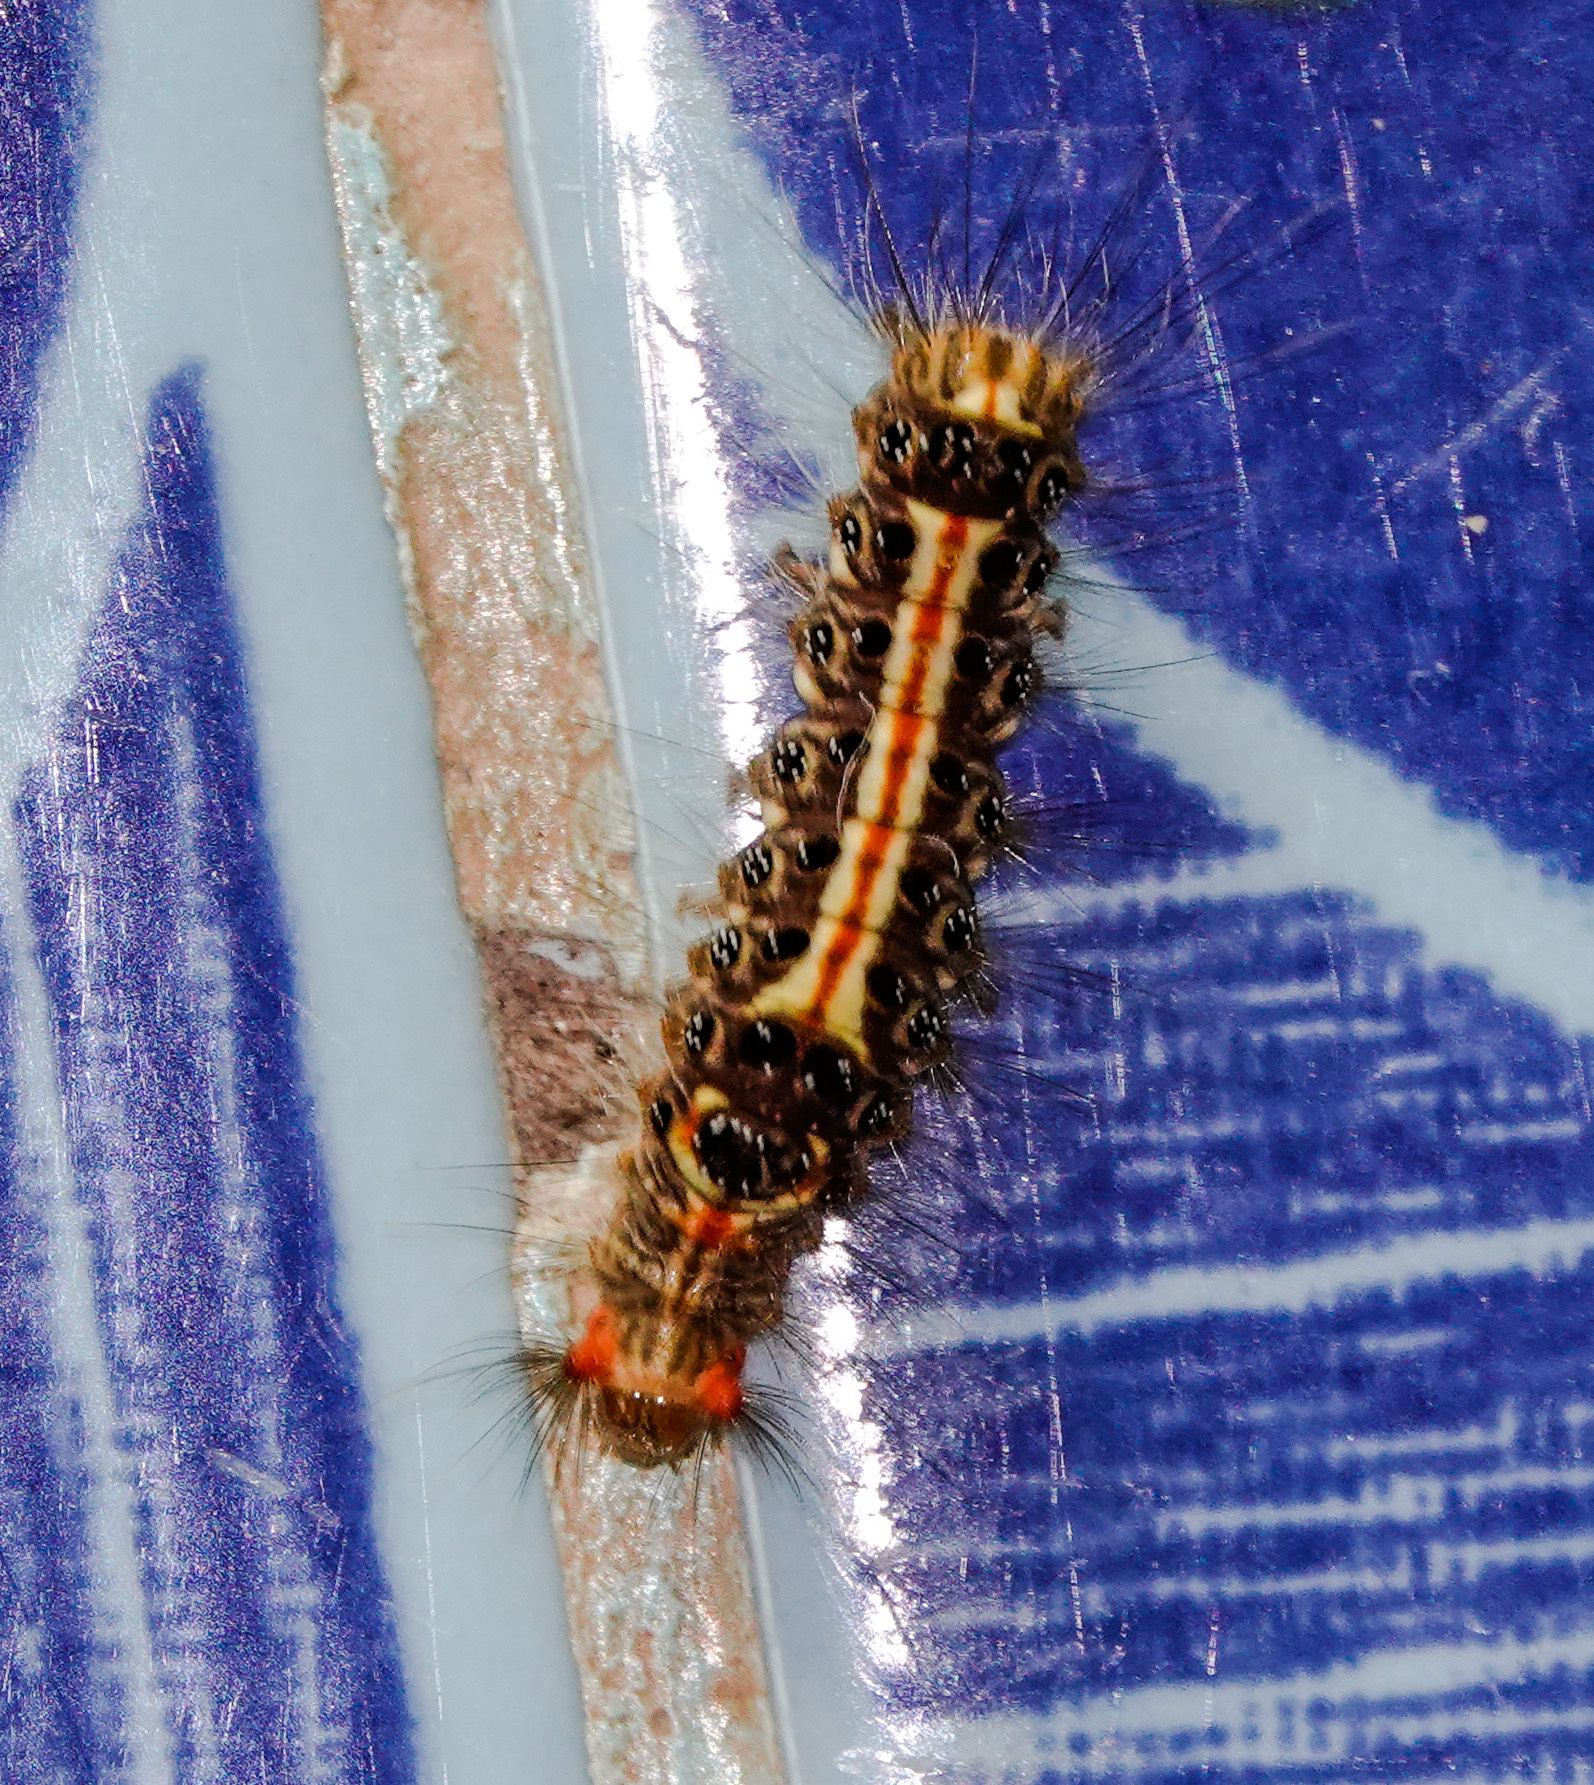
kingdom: Animalia
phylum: Arthropoda
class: Insecta
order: Lepidoptera
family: Erebidae
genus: Orvasca
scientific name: Orvasca subnotata
